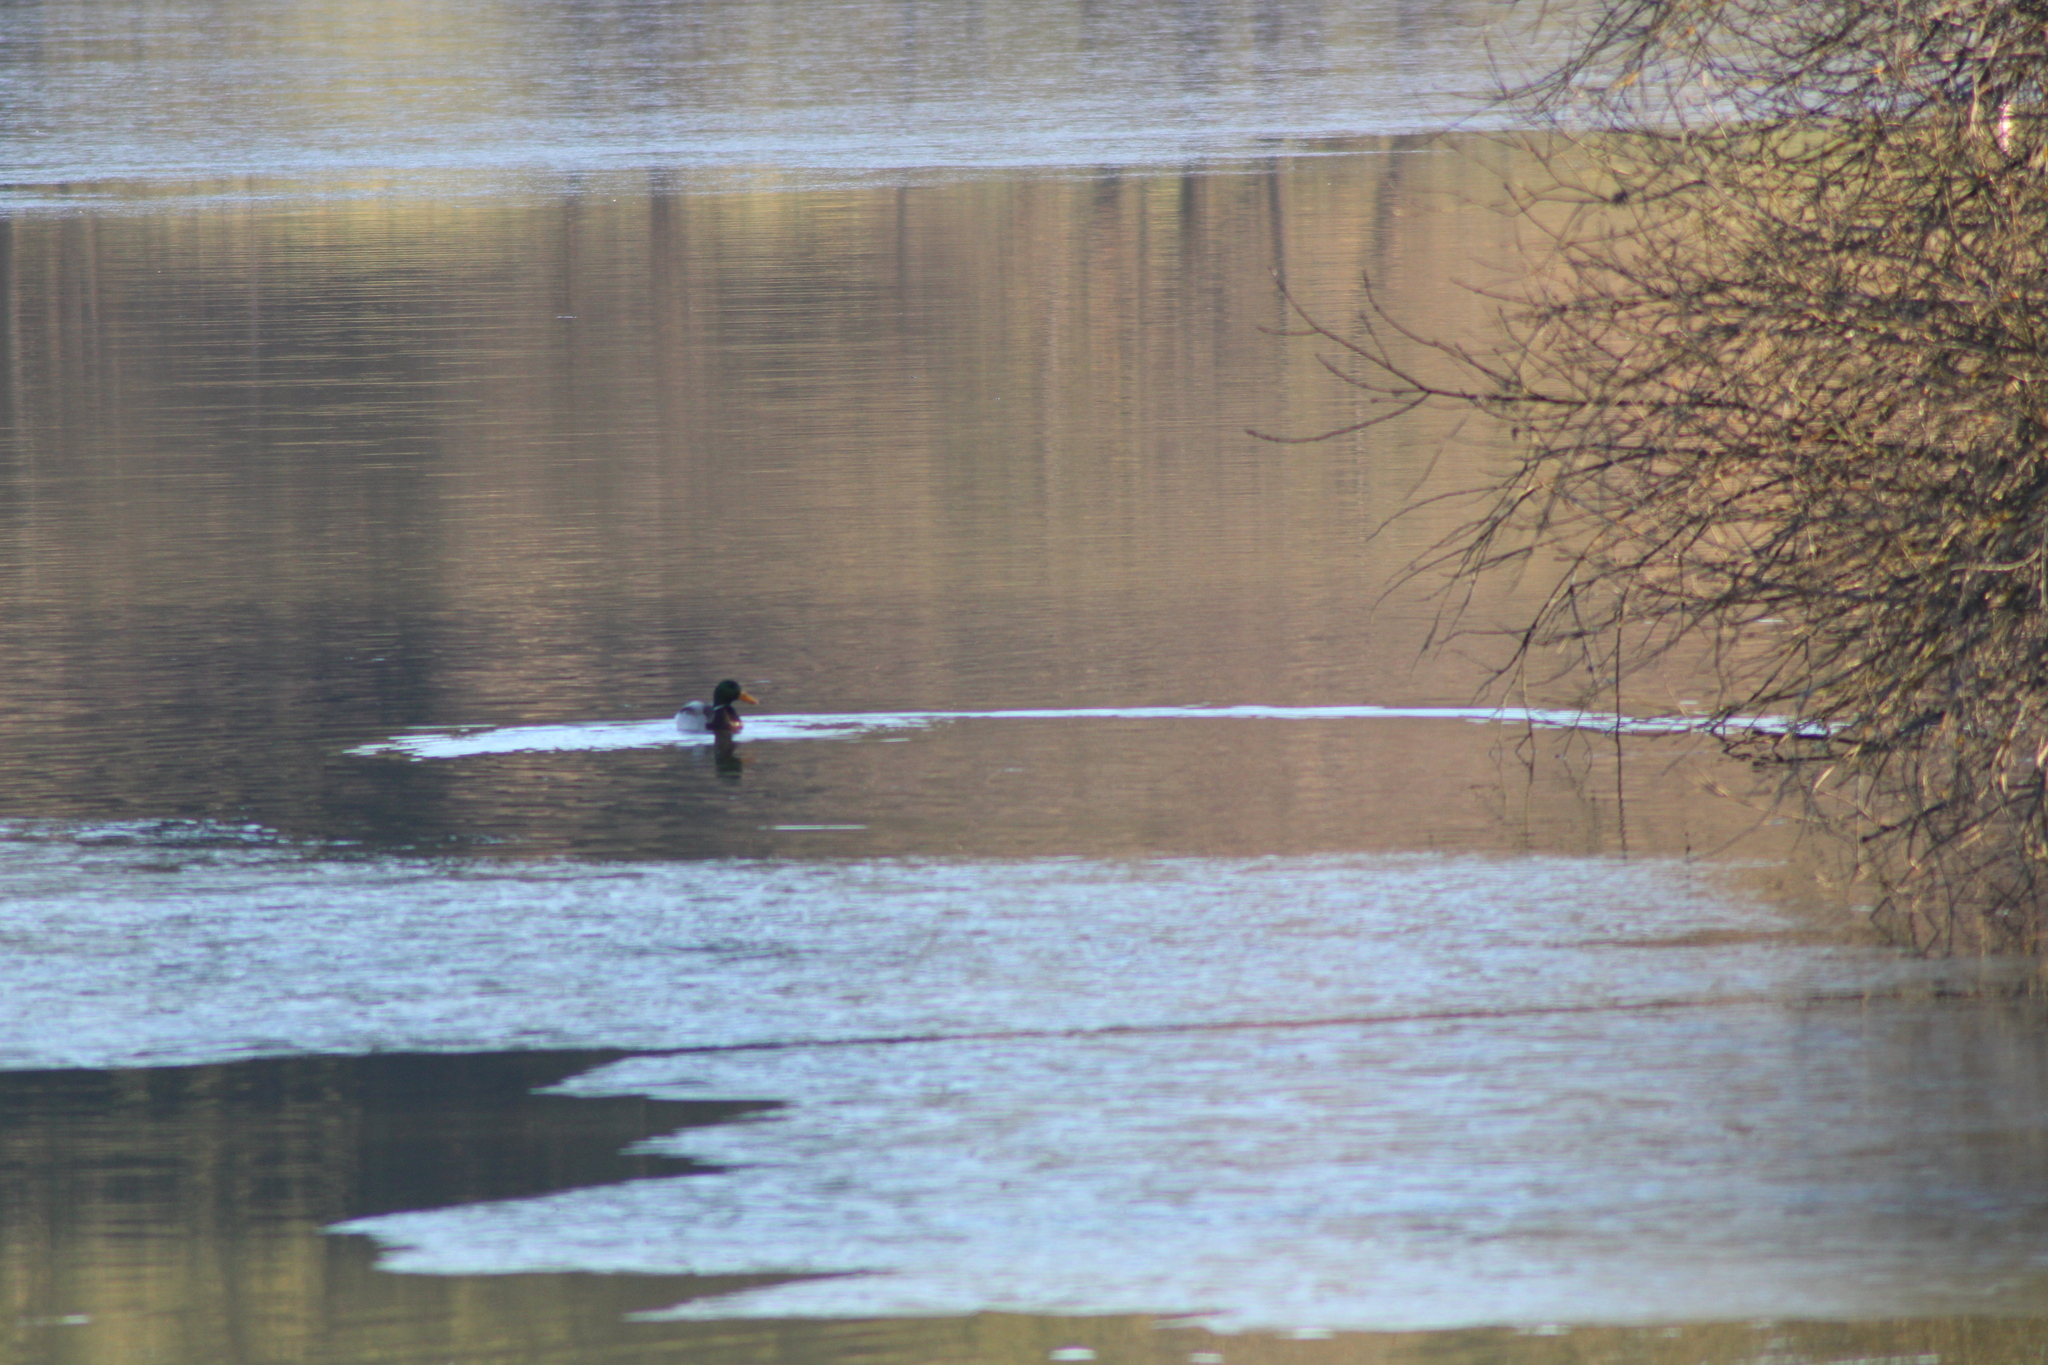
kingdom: Animalia
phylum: Chordata
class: Aves
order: Anseriformes
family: Anatidae
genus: Anas
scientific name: Anas platyrhynchos
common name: Mallard
